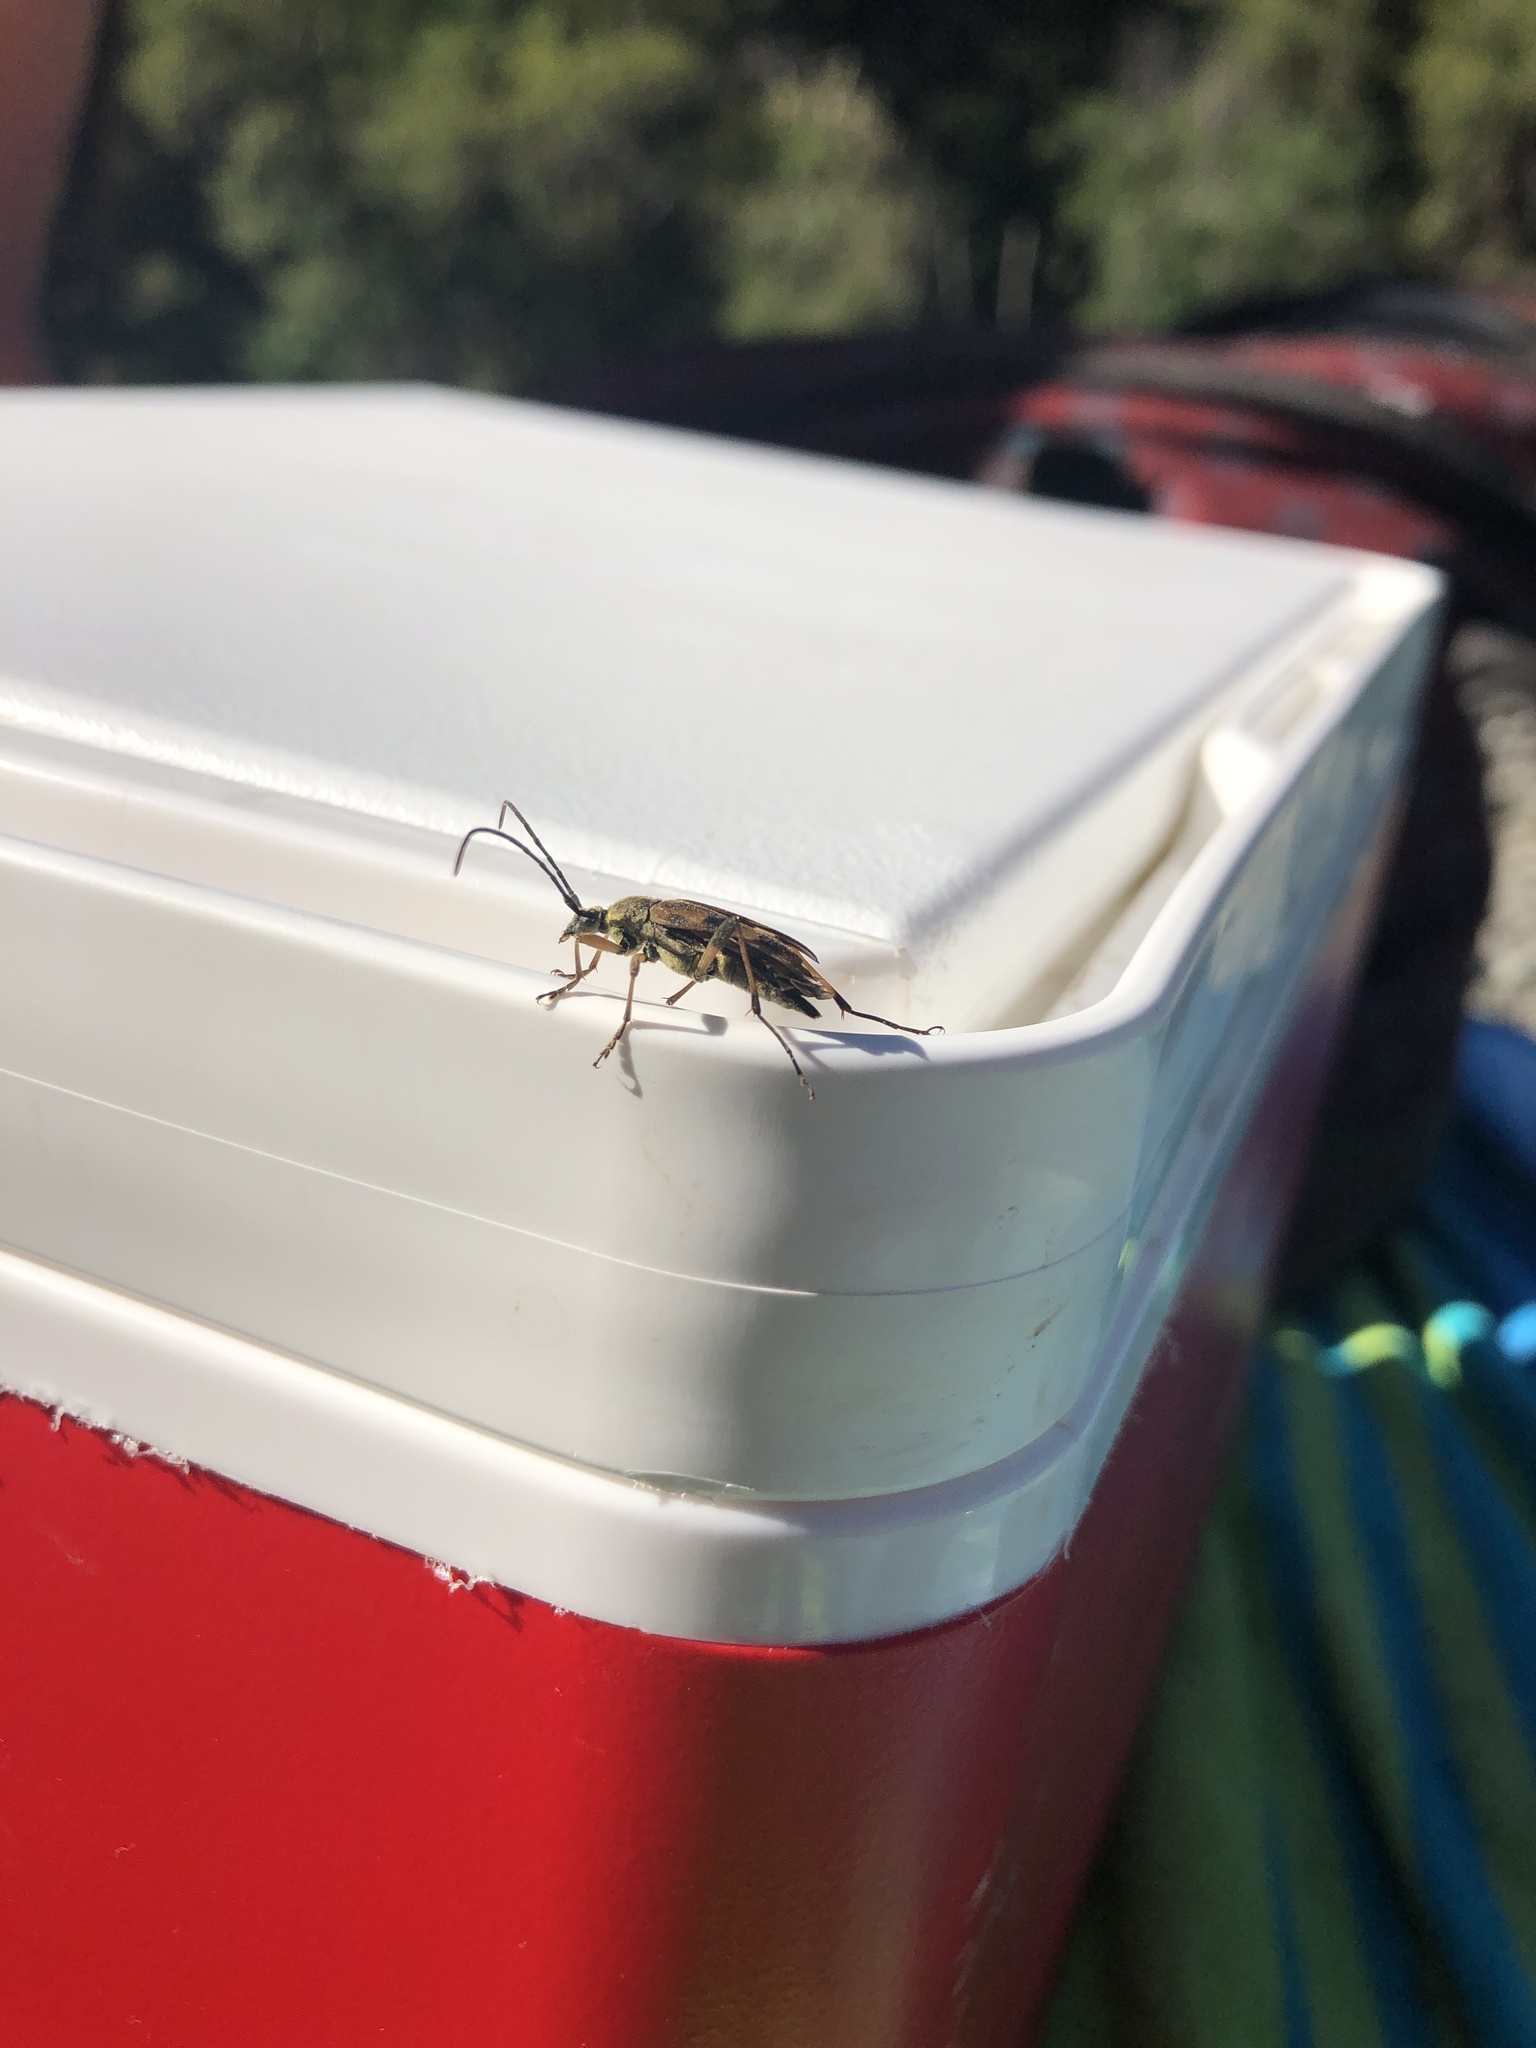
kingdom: Animalia
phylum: Arthropoda
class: Insecta
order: Coleoptera
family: Cerambycidae
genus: Etorofus
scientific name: Etorofus obliteratus
